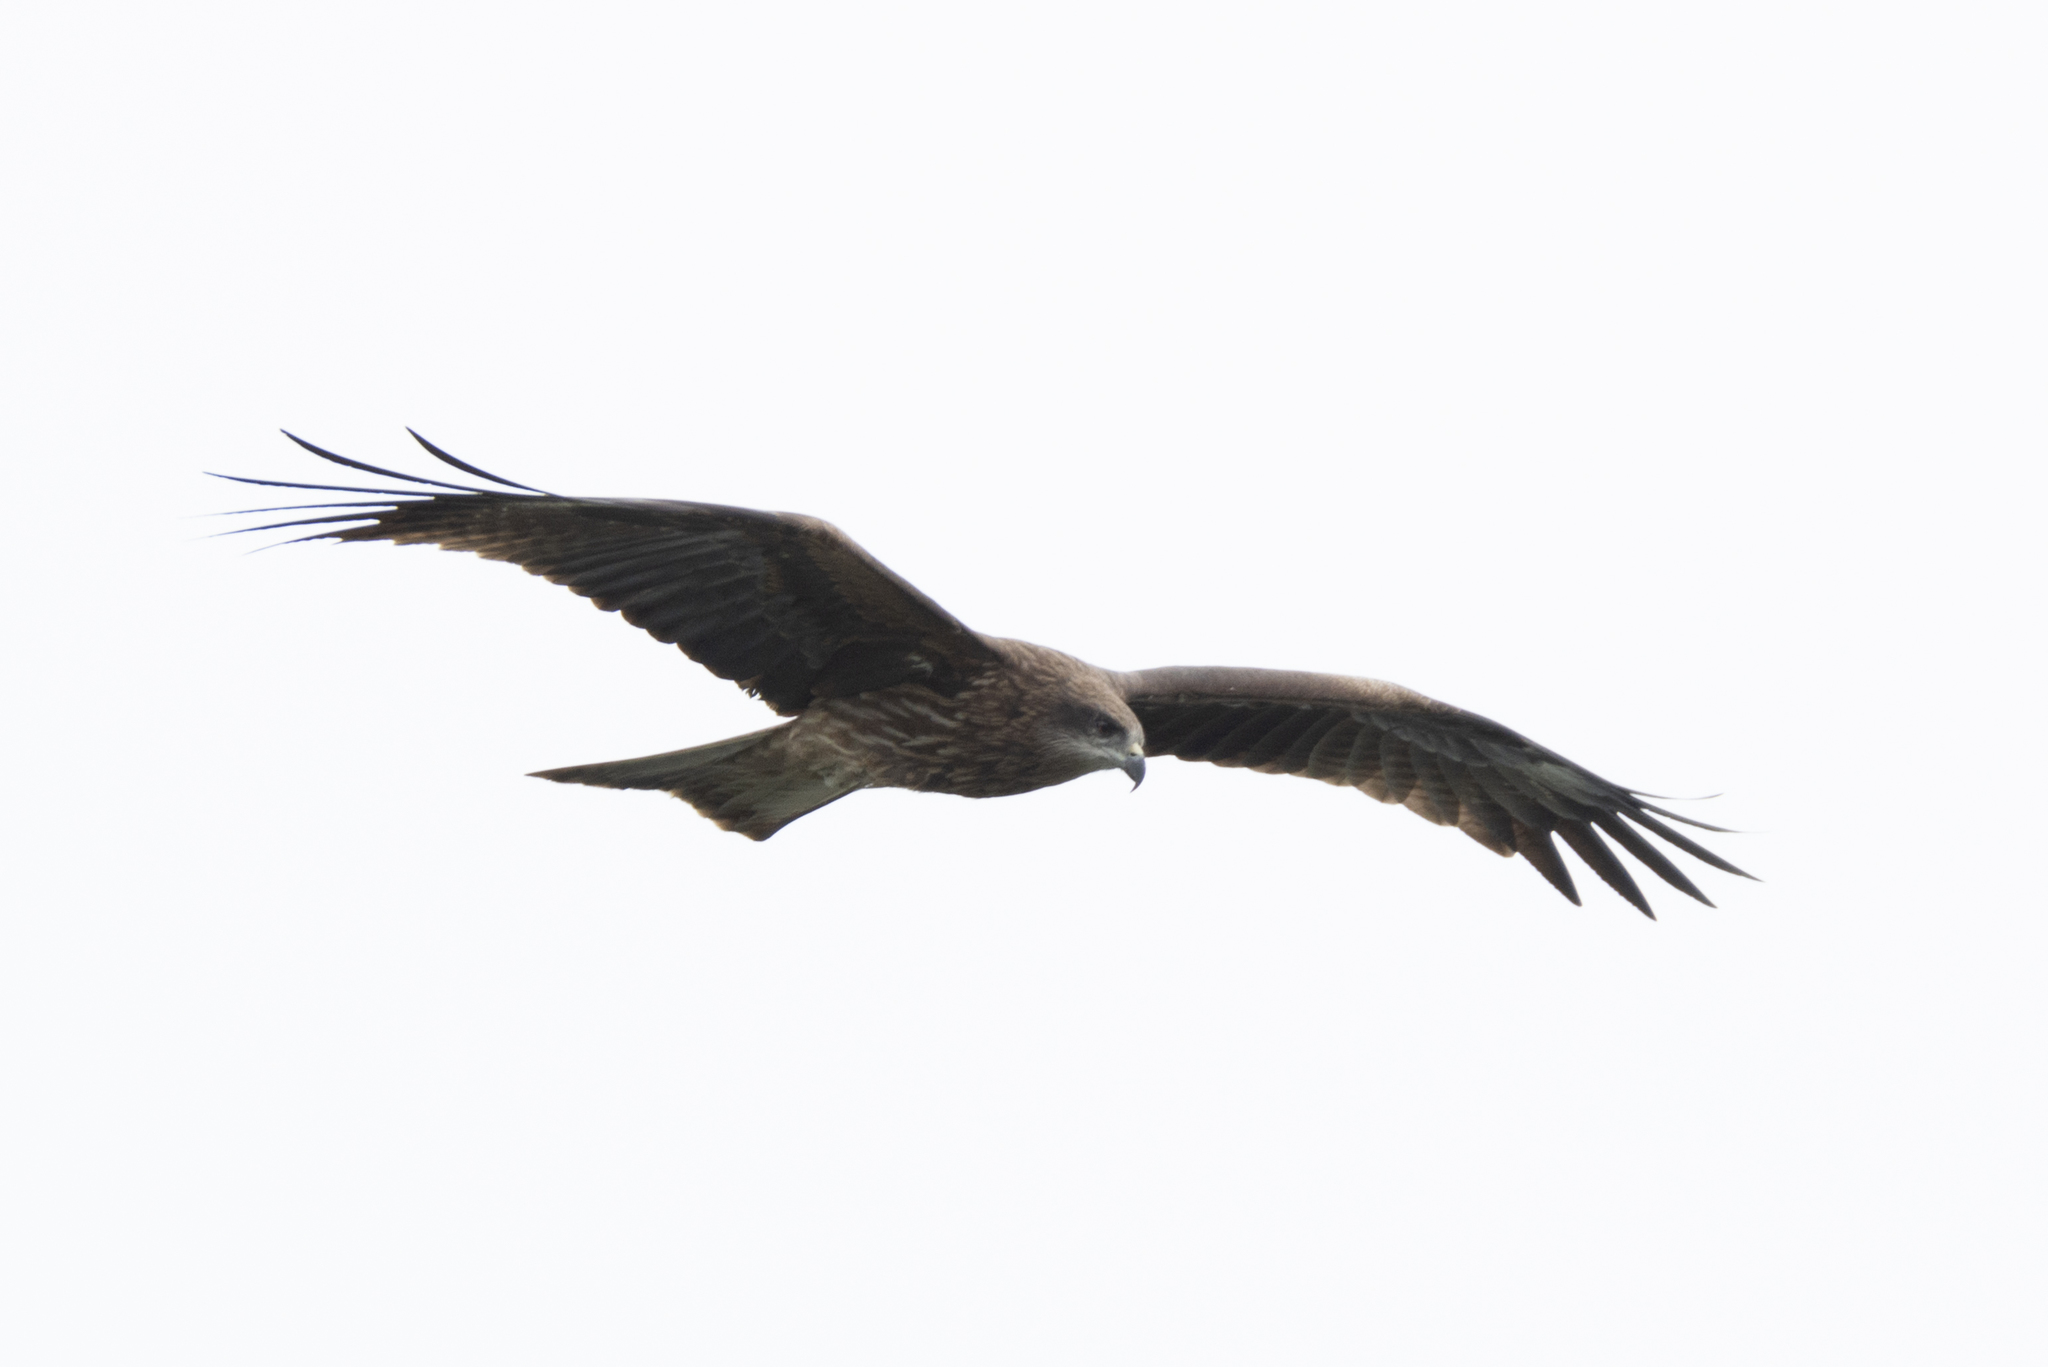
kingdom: Animalia
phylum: Chordata
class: Aves
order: Accipitriformes
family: Accipitridae
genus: Milvus
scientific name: Milvus migrans
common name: Black kite
